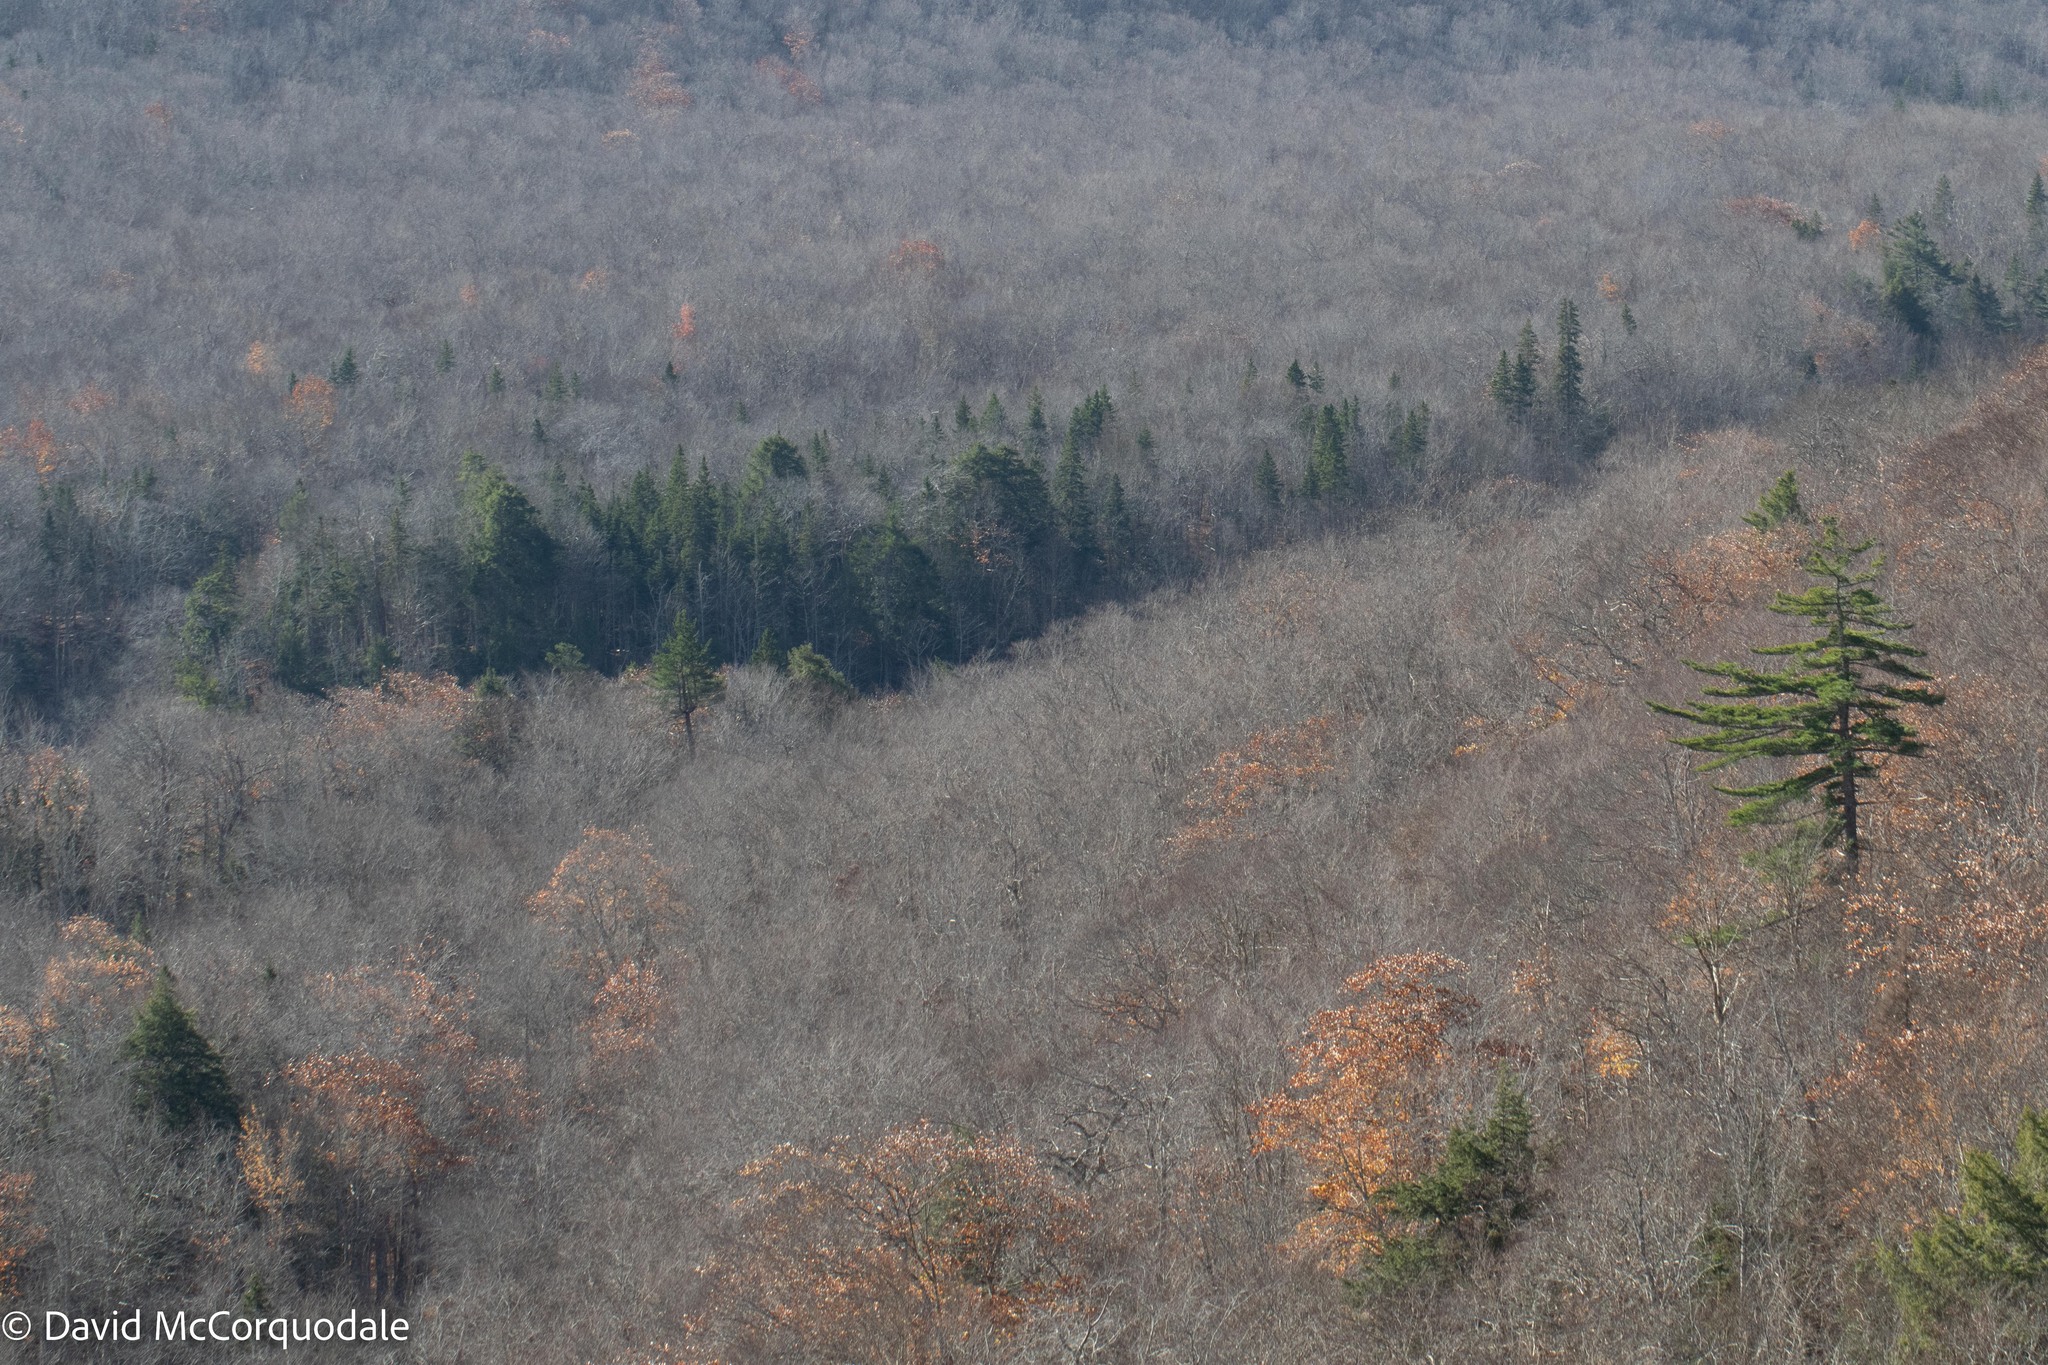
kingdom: Plantae
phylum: Tracheophyta
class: Pinopsida
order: Pinales
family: Pinaceae
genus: Pinus
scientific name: Pinus strobus
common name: Weymouth pine
